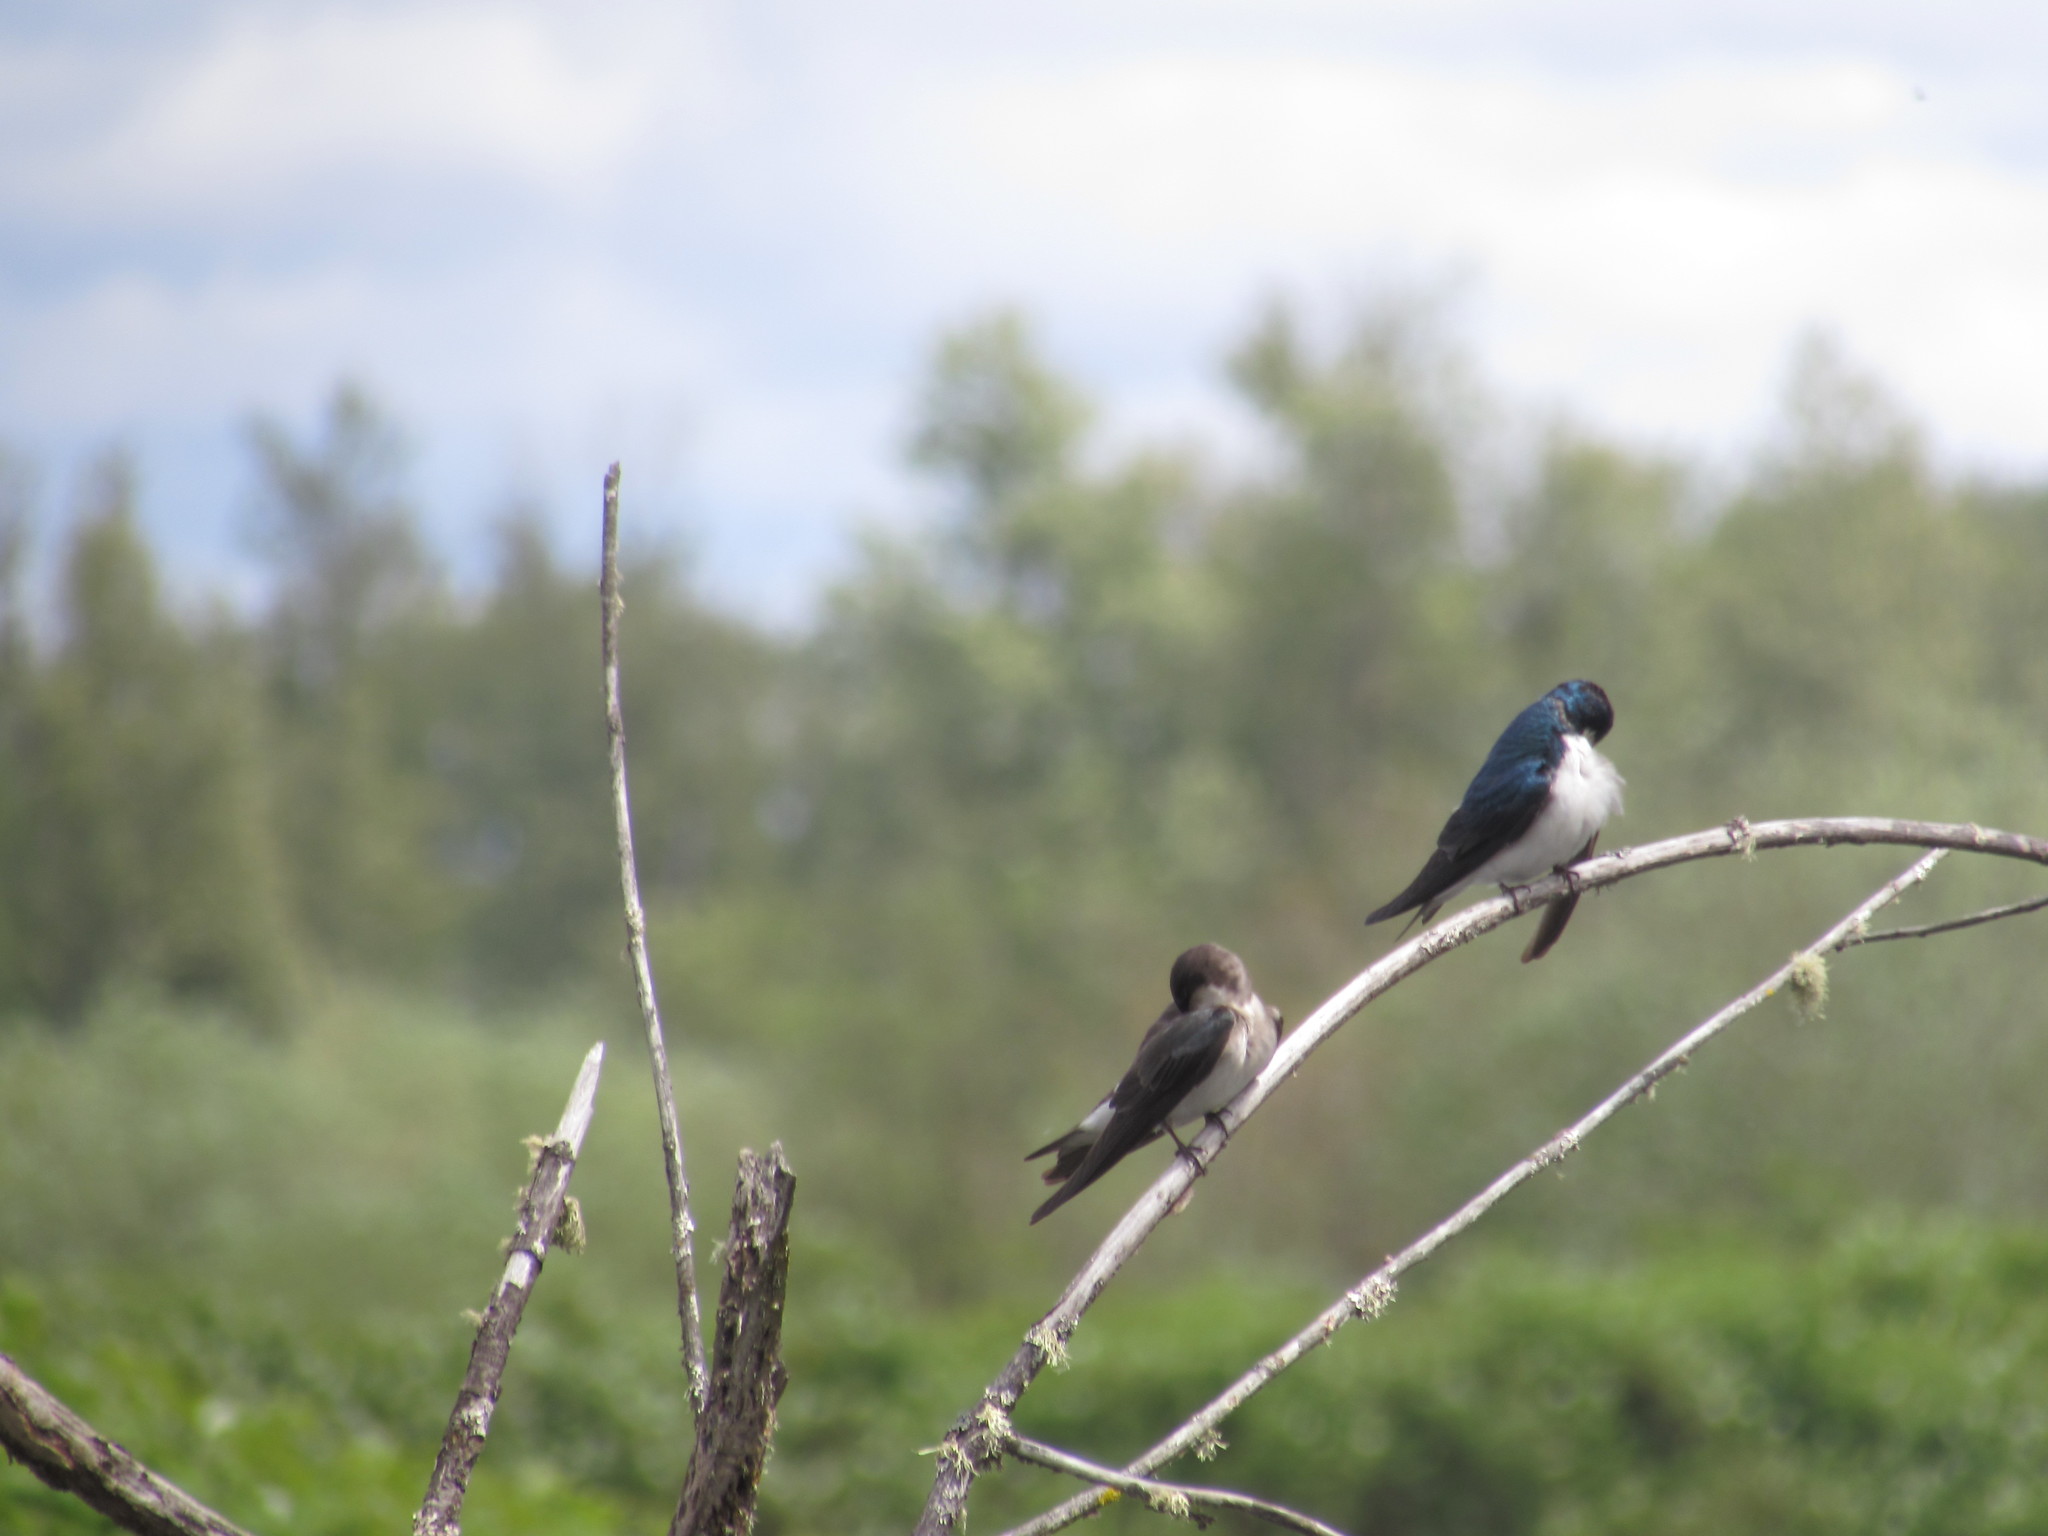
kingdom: Animalia
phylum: Chordata
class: Aves
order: Passeriformes
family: Hirundinidae
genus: Tachycineta
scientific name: Tachycineta bicolor
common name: Tree swallow
